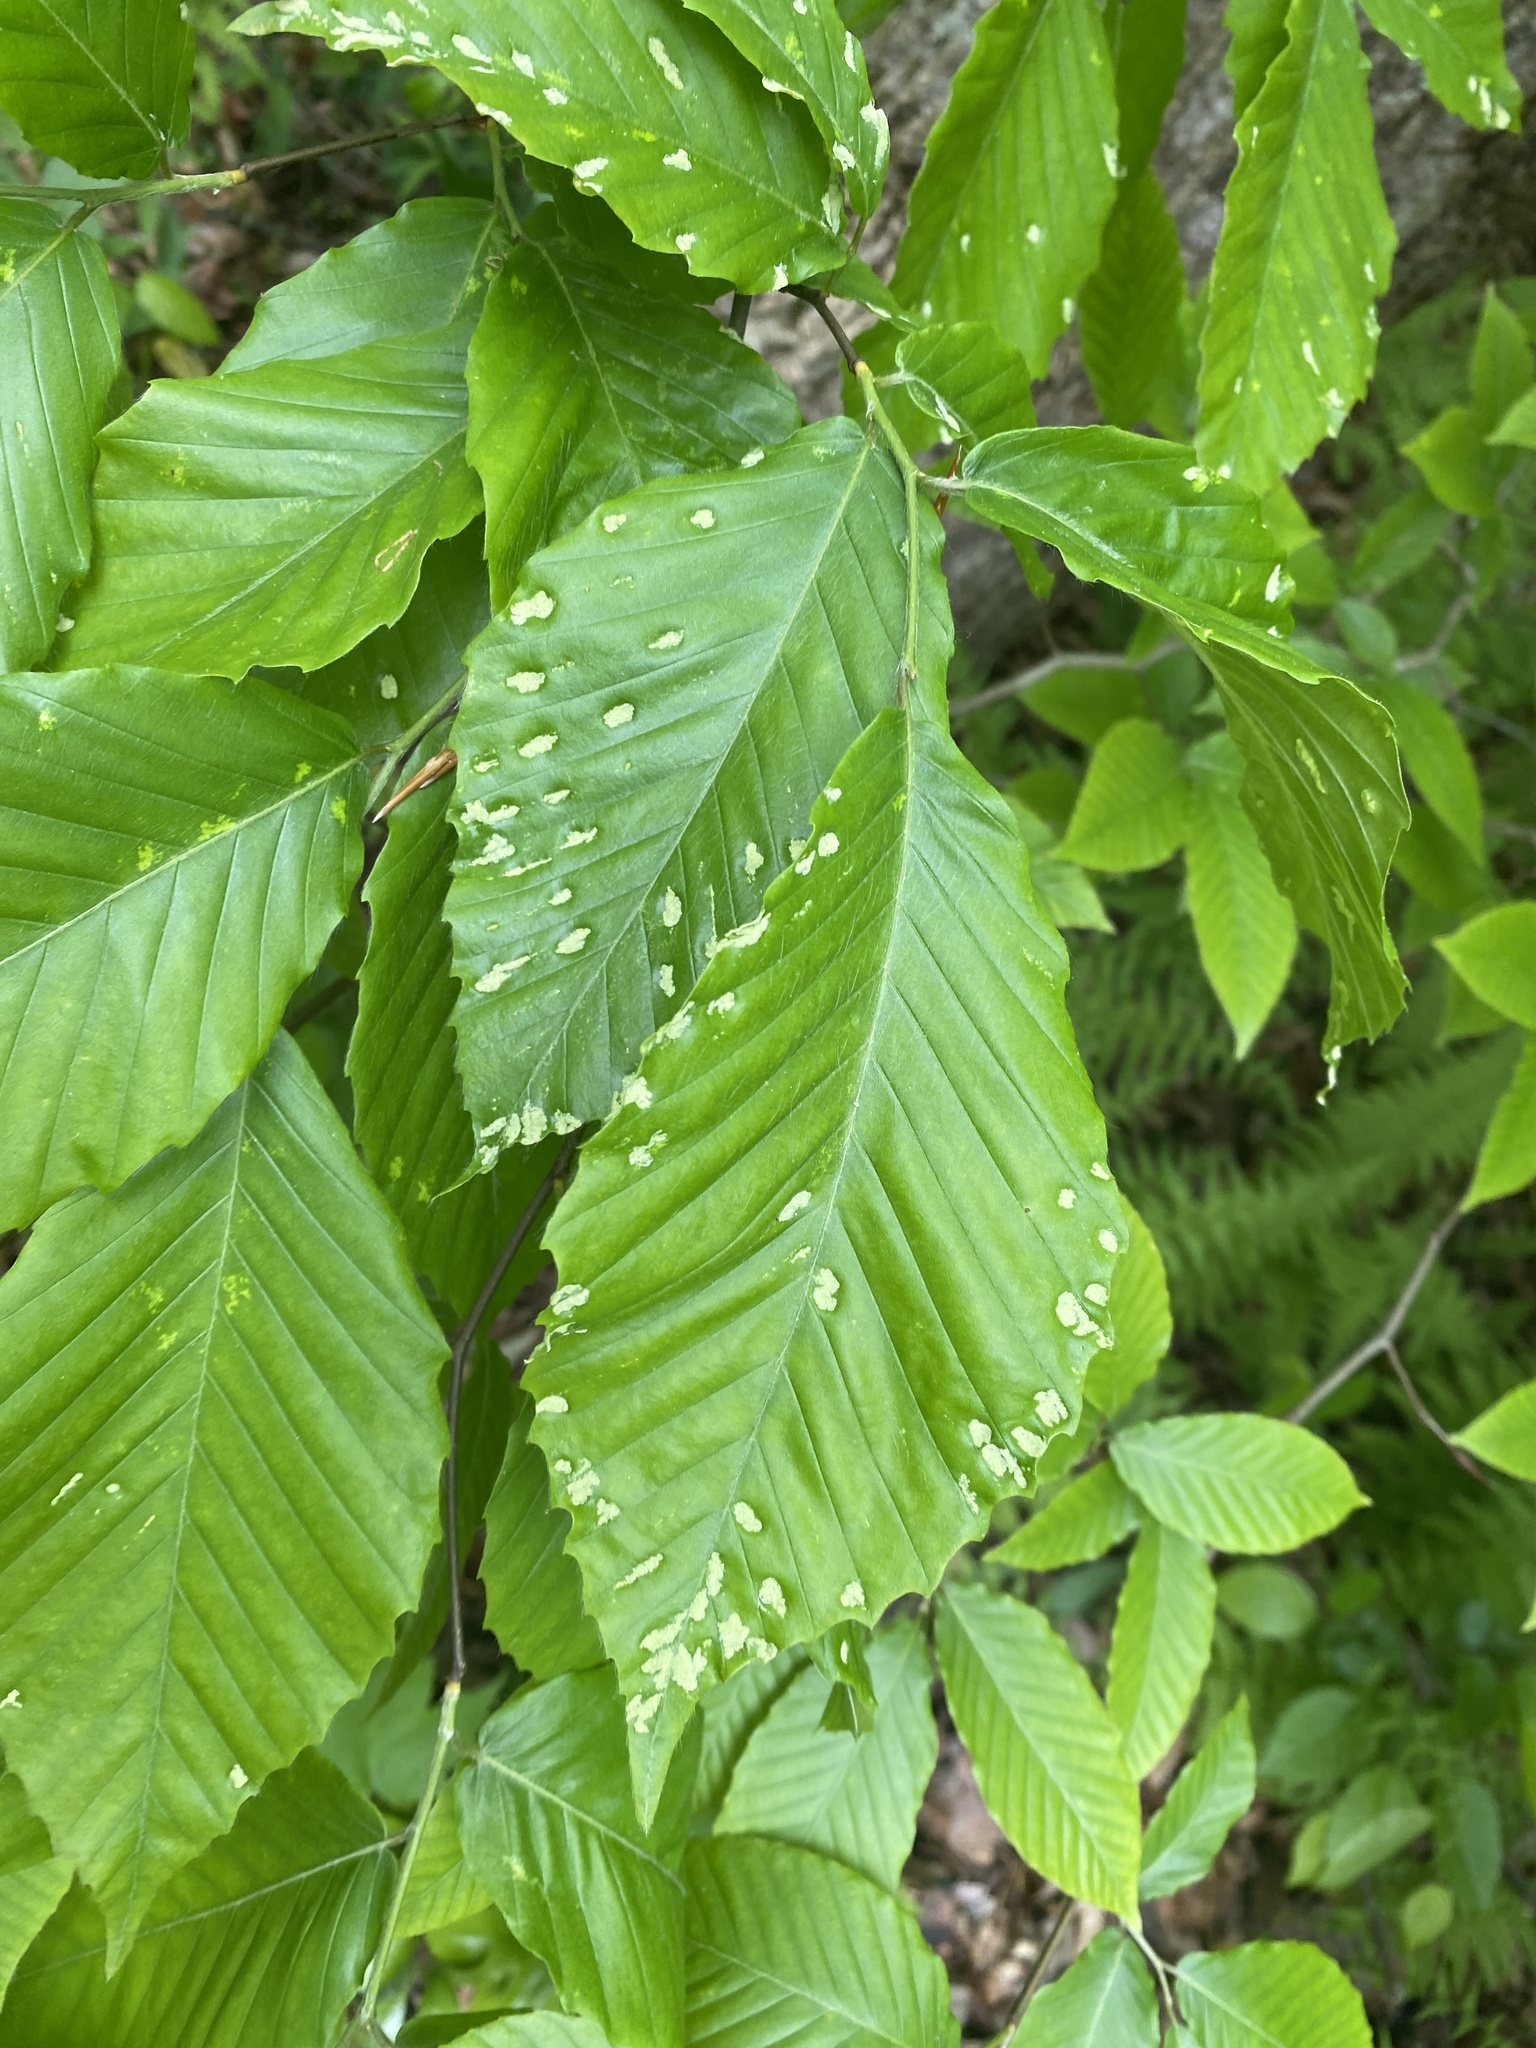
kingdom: Animalia
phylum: Arthropoda
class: Arachnida
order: Trombidiformes
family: Eriophyidae
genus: Acalitus
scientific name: Acalitus
